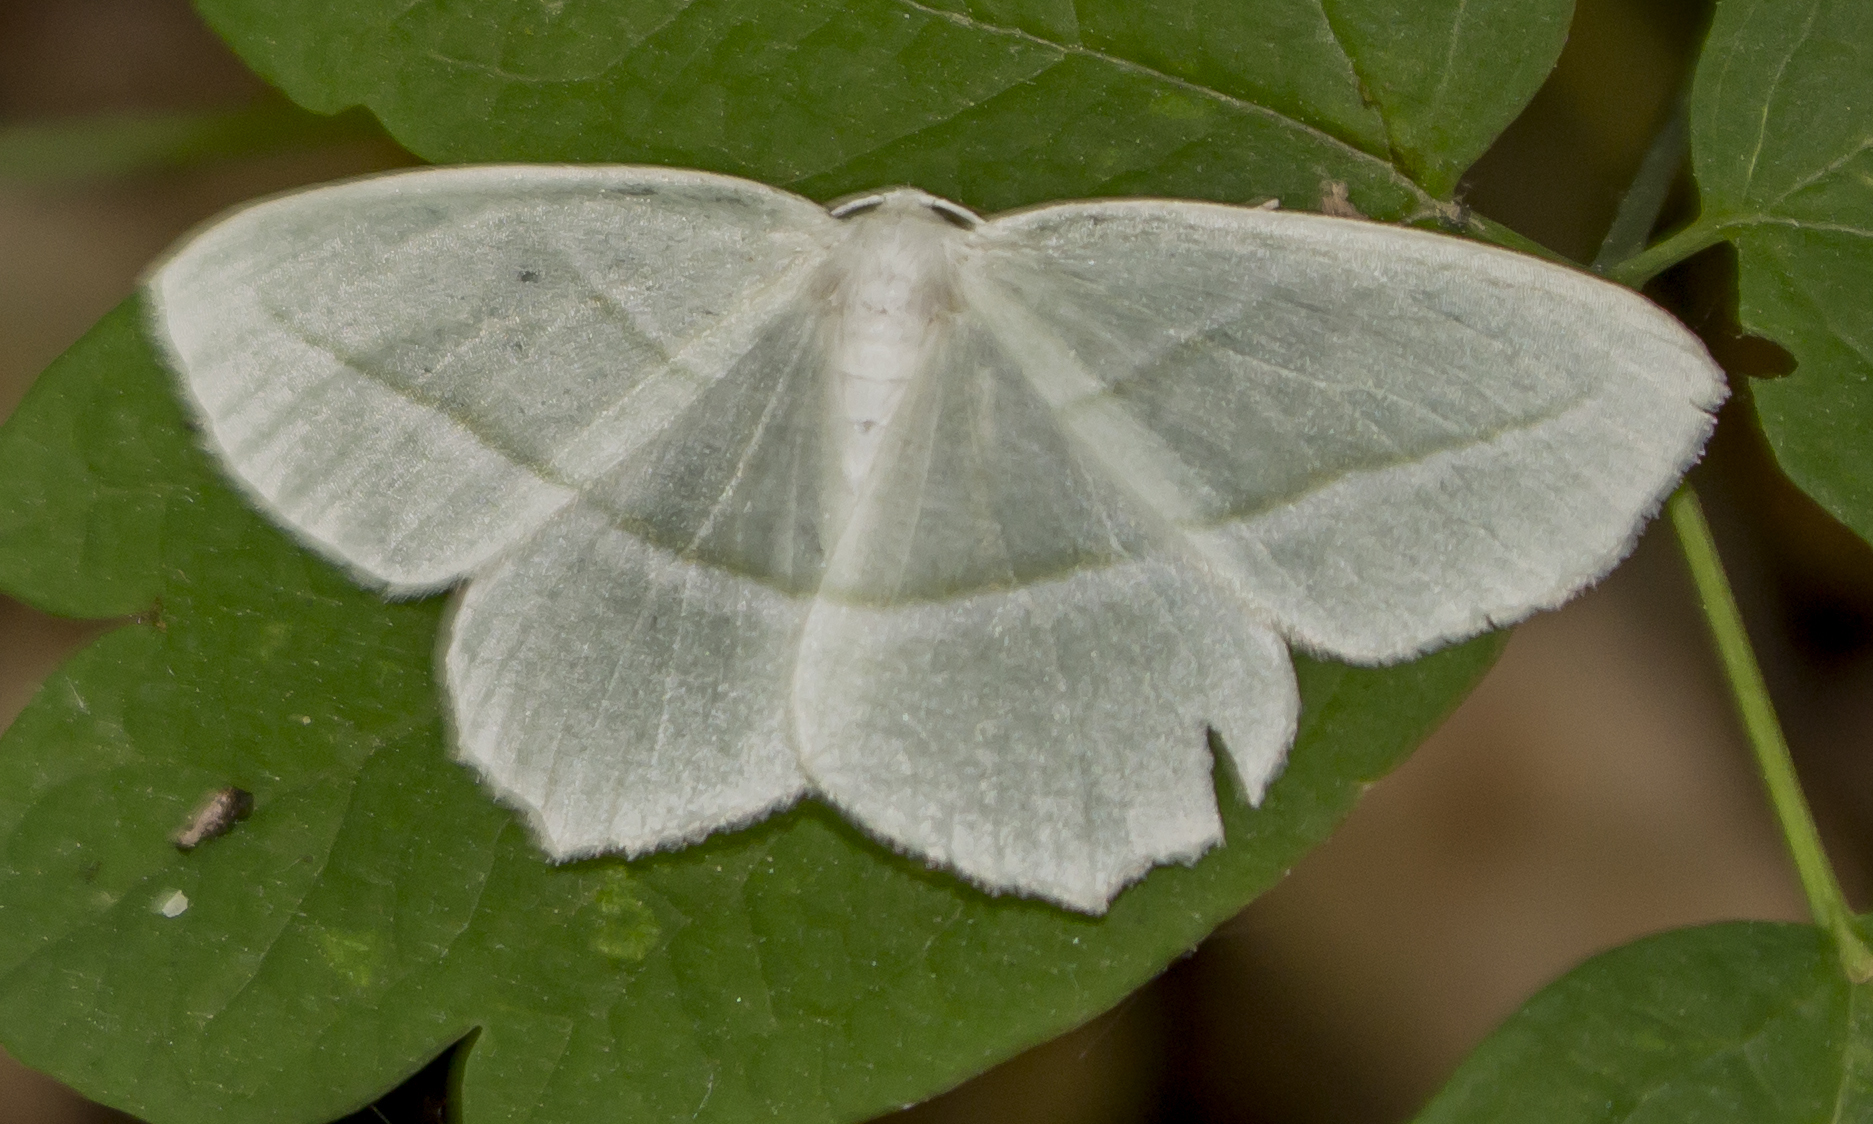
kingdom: Animalia
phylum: Arthropoda
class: Insecta
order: Lepidoptera
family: Geometridae
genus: Campaea
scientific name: Campaea perlata
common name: Fringed looper
